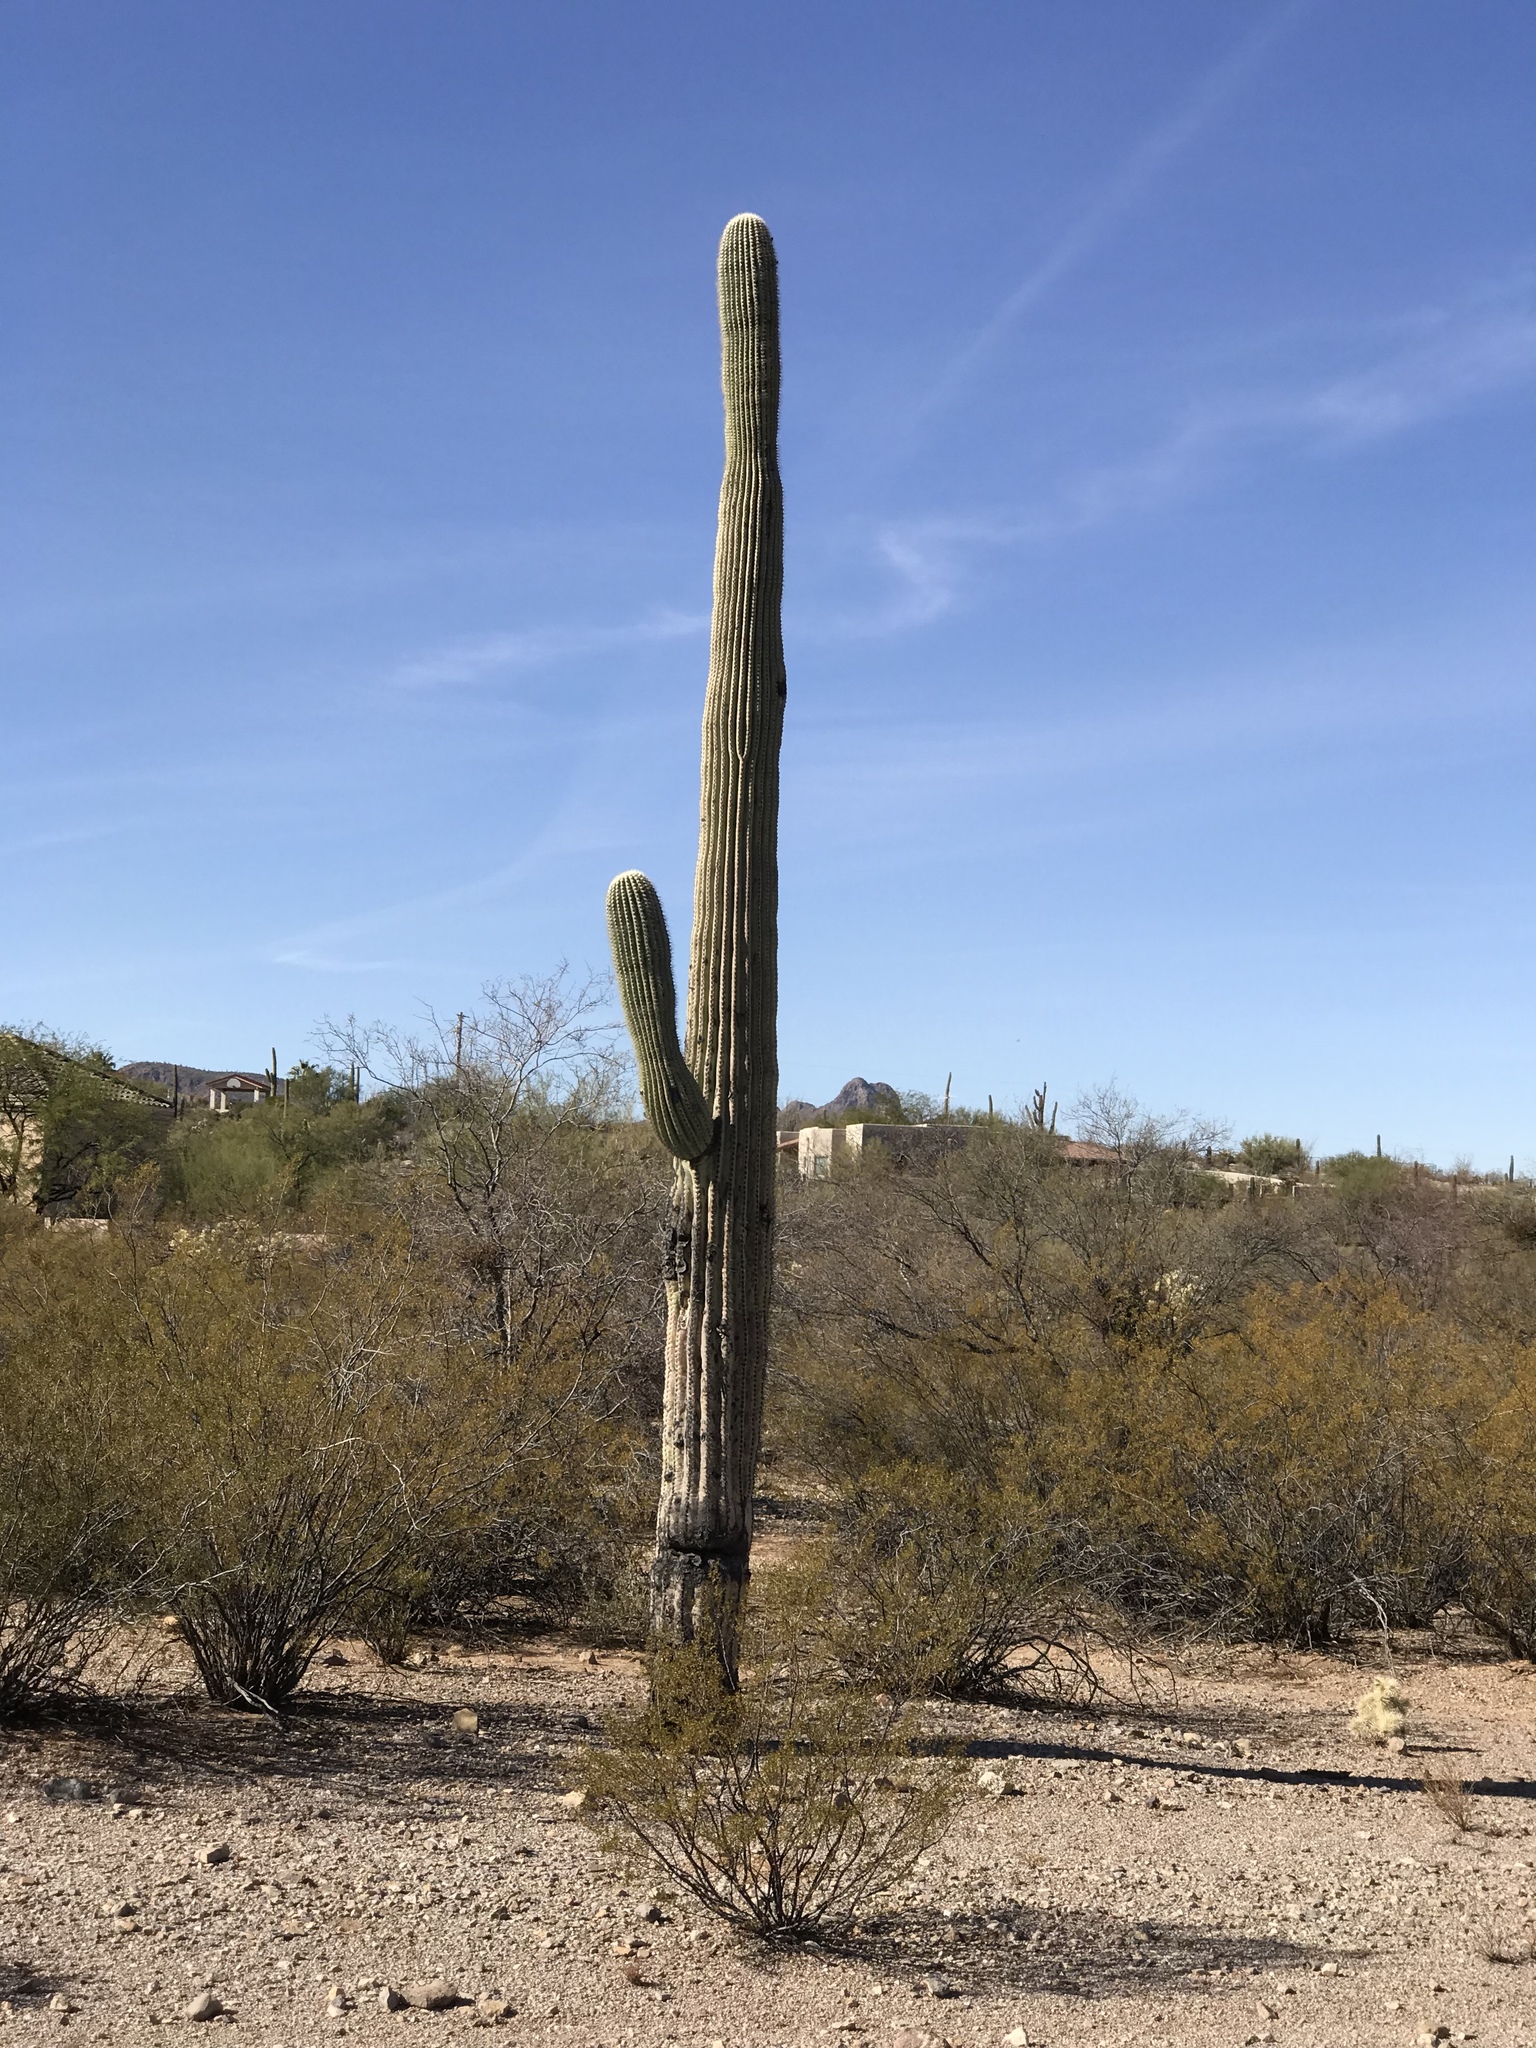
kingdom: Plantae
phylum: Tracheophyta
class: Magnoliopsida
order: Caryophyllales
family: Cactaceae
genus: Carnegiea
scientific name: Carnegiea gigantea
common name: Saguaro
